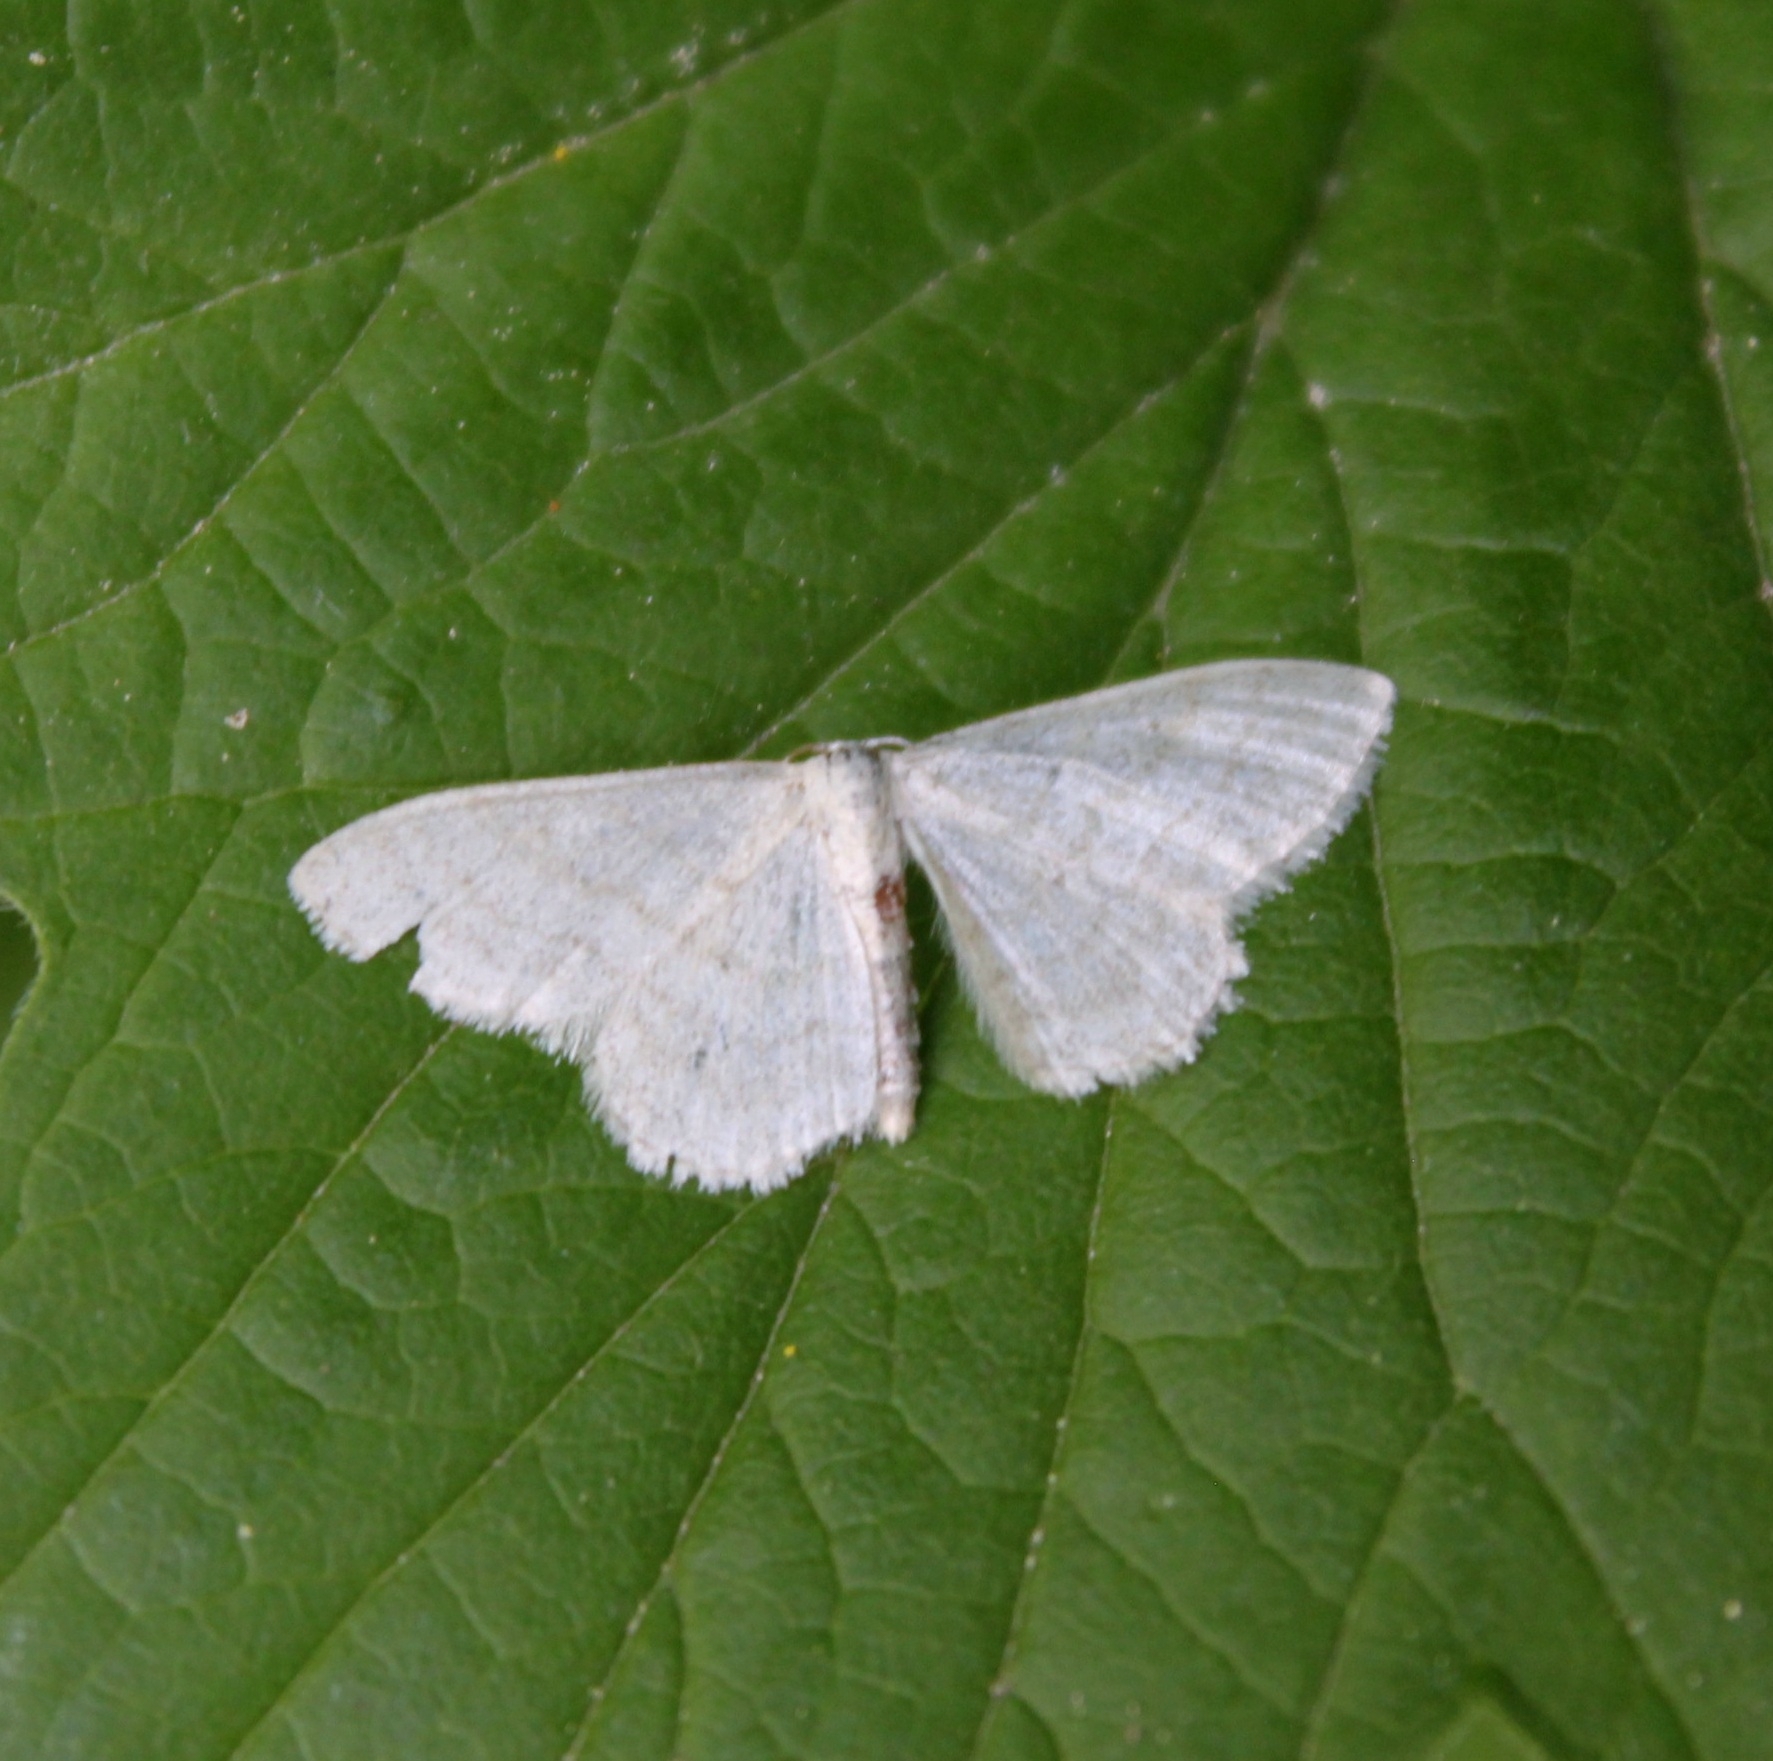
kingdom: Animalia
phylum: Arthropoda
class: Insecta
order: Lepidoptera
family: Geometridae
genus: Idaea
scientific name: Idaea subsericeata
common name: Satin wave
